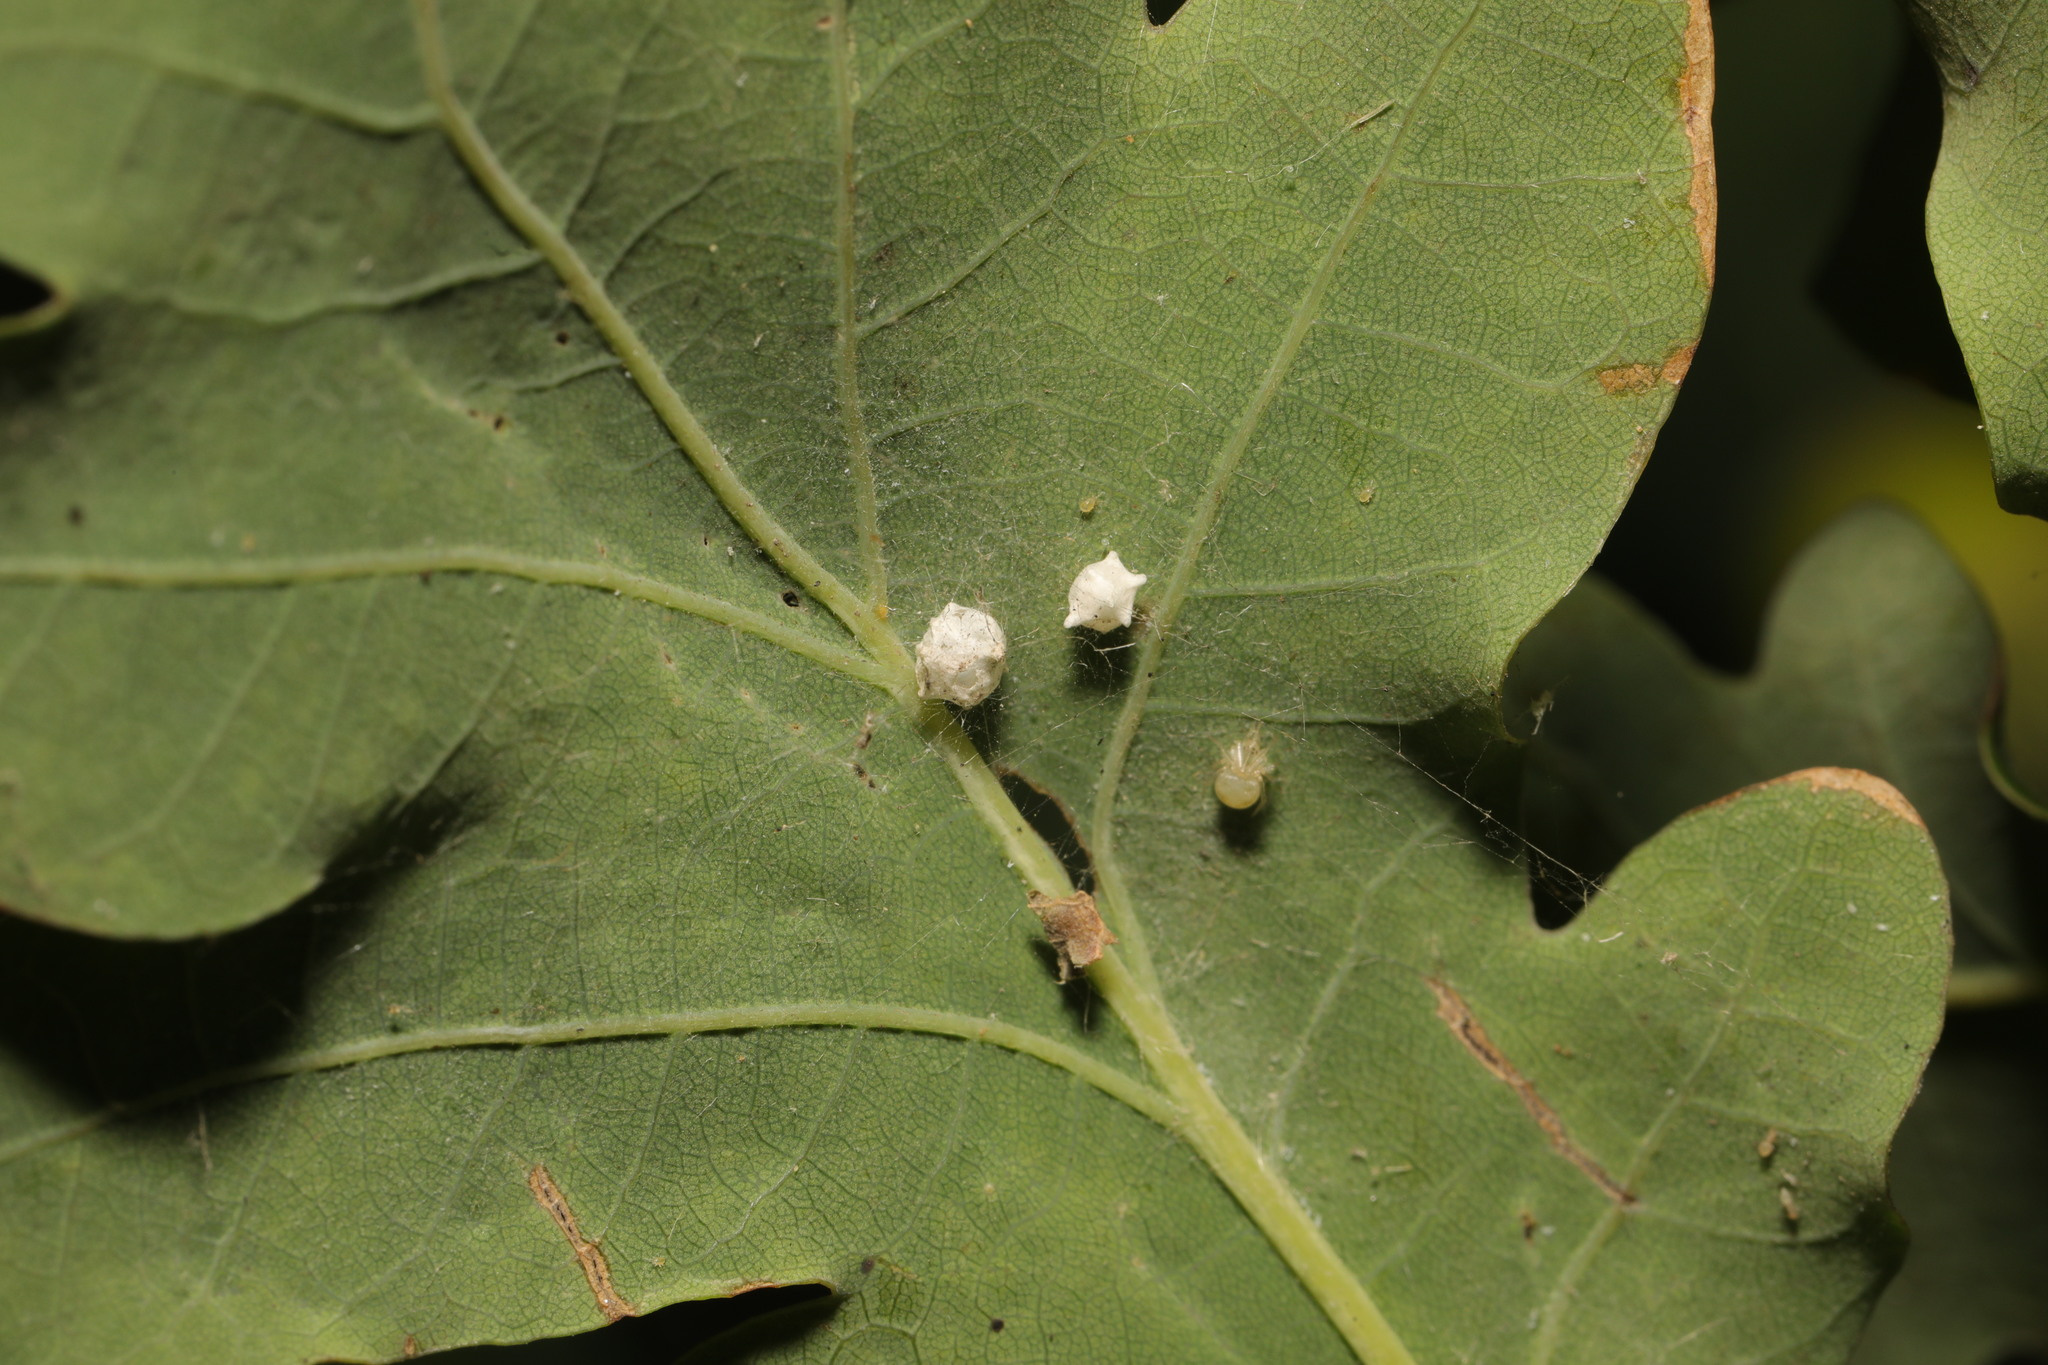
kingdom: Animalia
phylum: Arthropoda
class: Arachnida
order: Araneae
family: Theridiidae
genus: Paidiscura
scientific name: Paidiscura pallens
